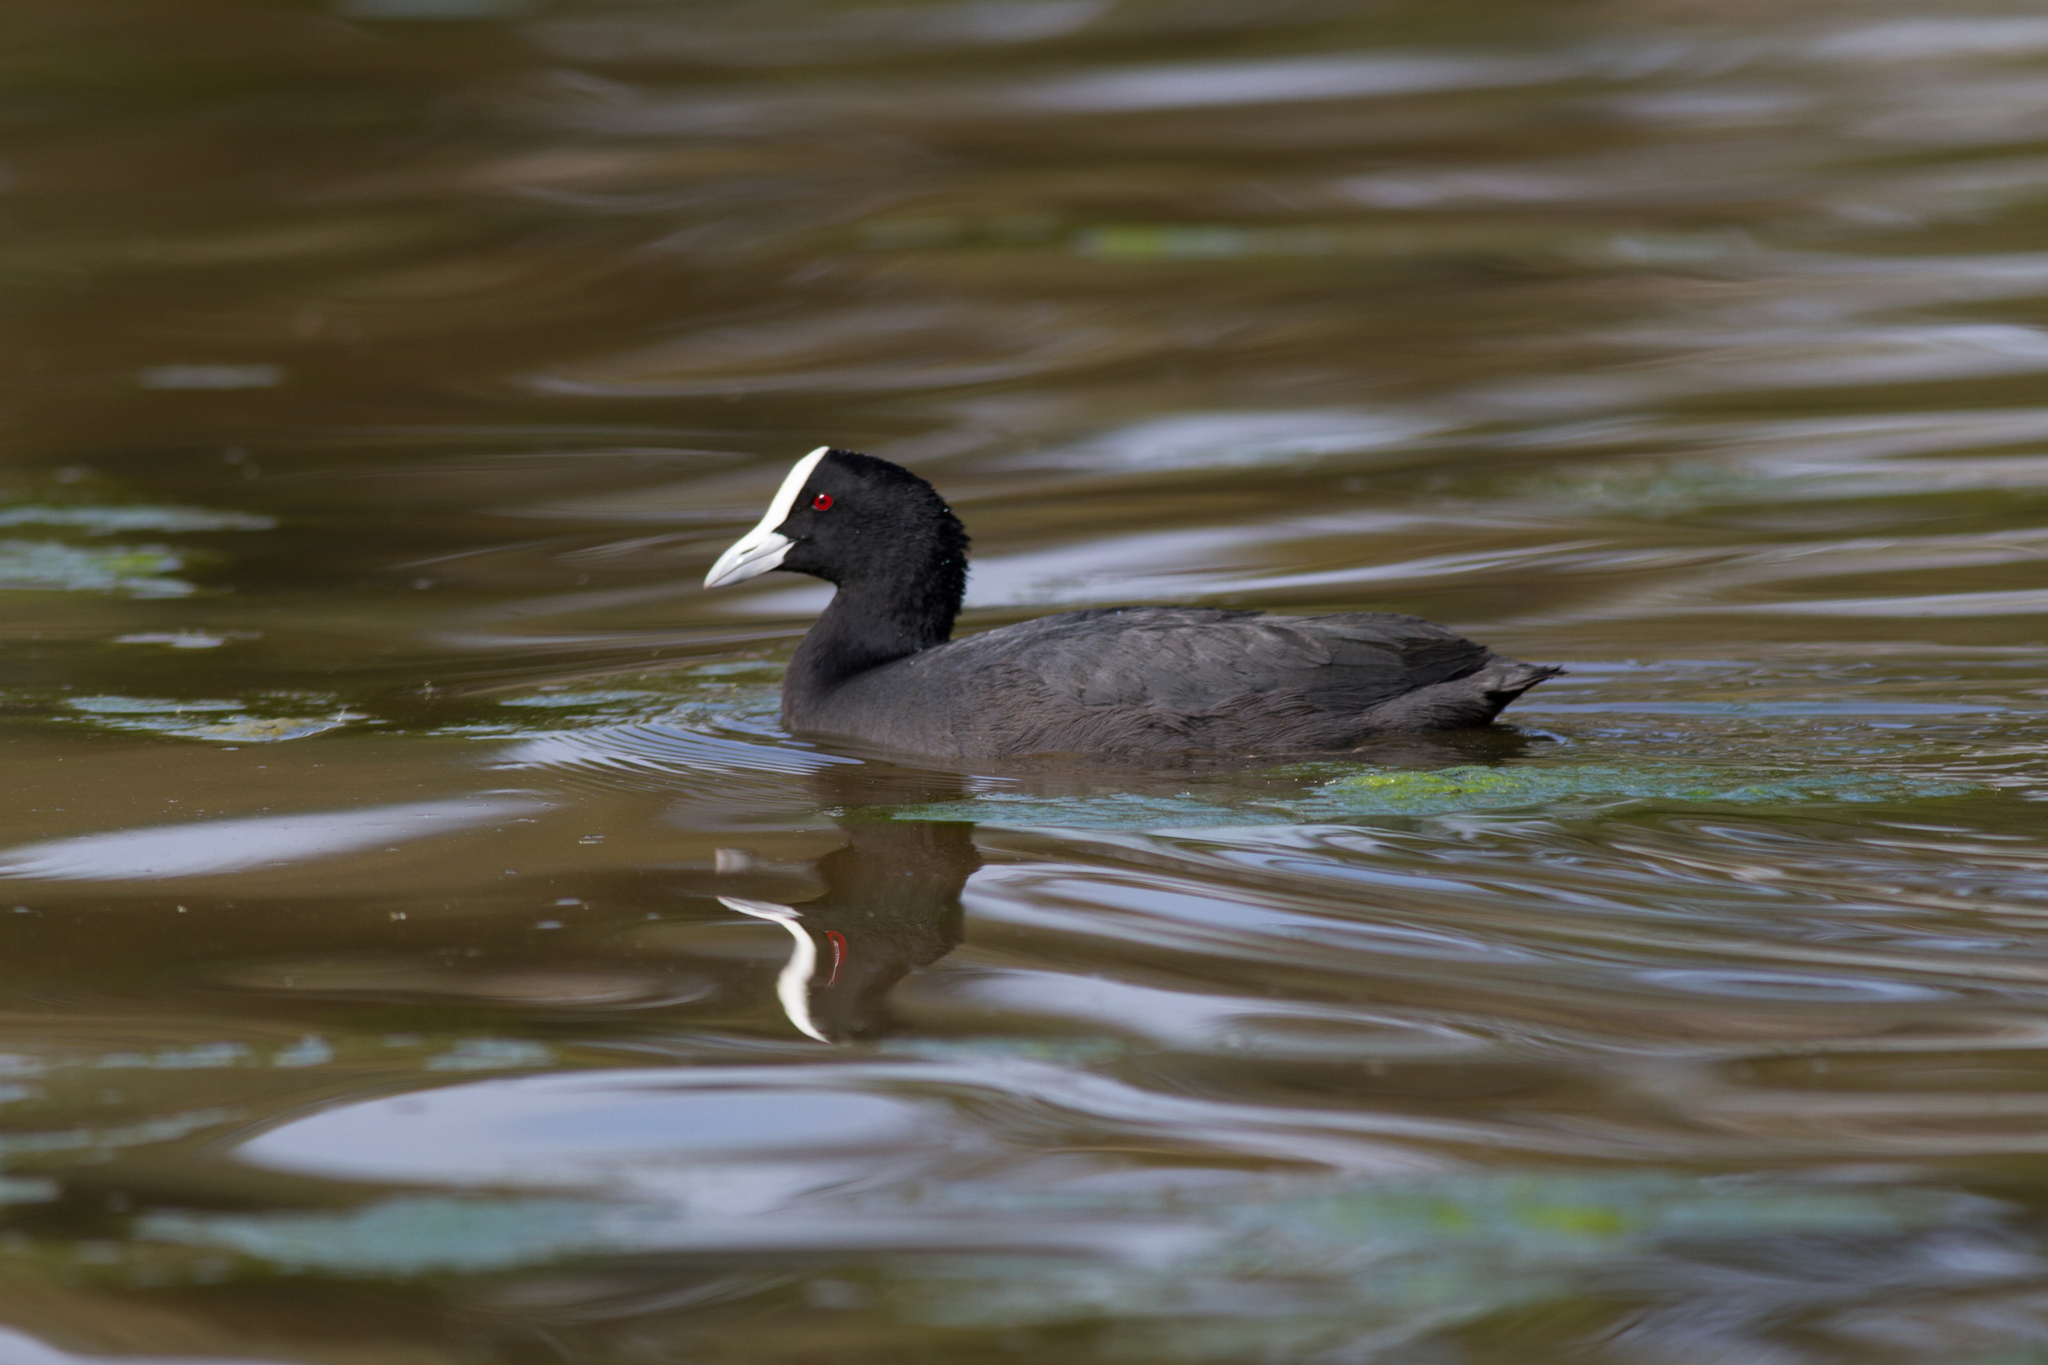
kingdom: Animalia
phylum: Chordata
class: Aves
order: Gruiformes
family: Rallidae
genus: Fulica
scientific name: Fulica atra
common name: Eurasian coot
